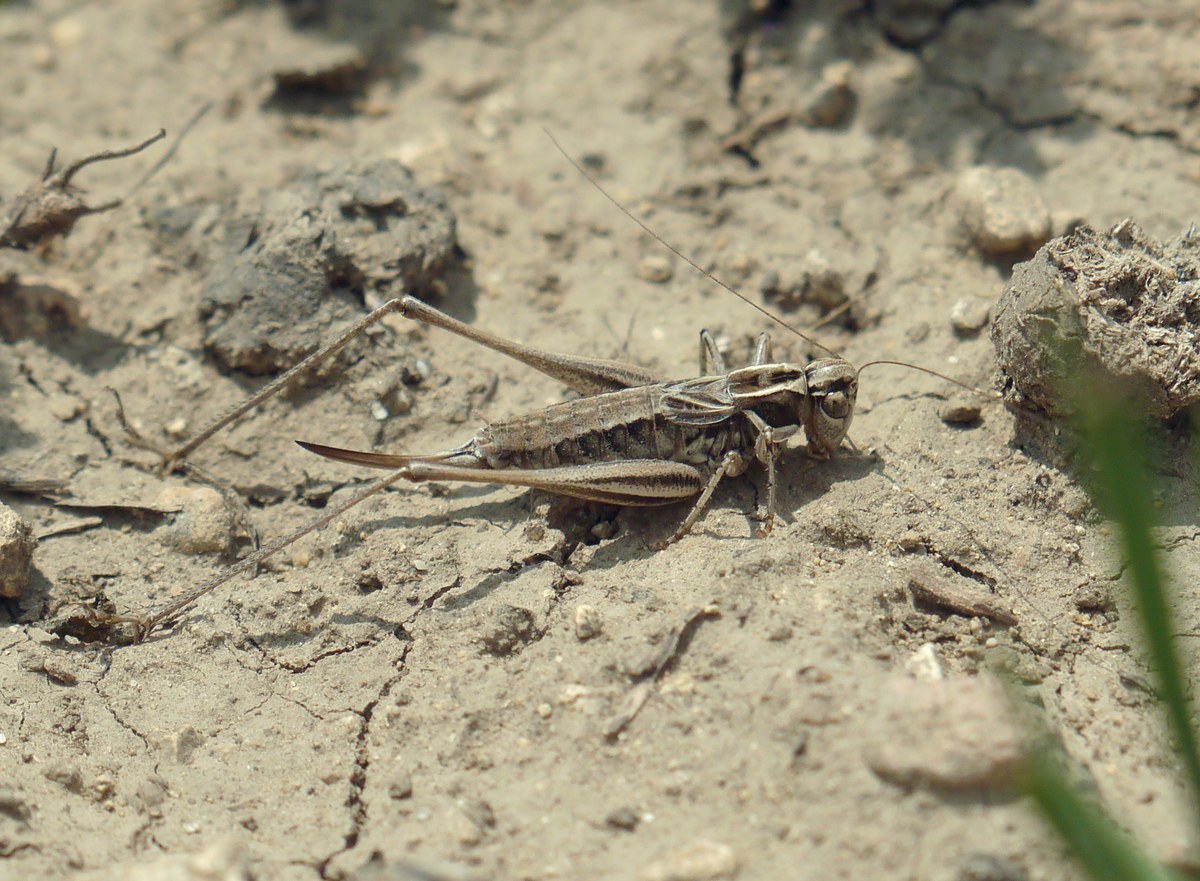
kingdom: Animalia
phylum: Arthropoda
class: Insecta
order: Orthoptera
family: Tettigoniidae
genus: Montana
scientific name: Montana striata
